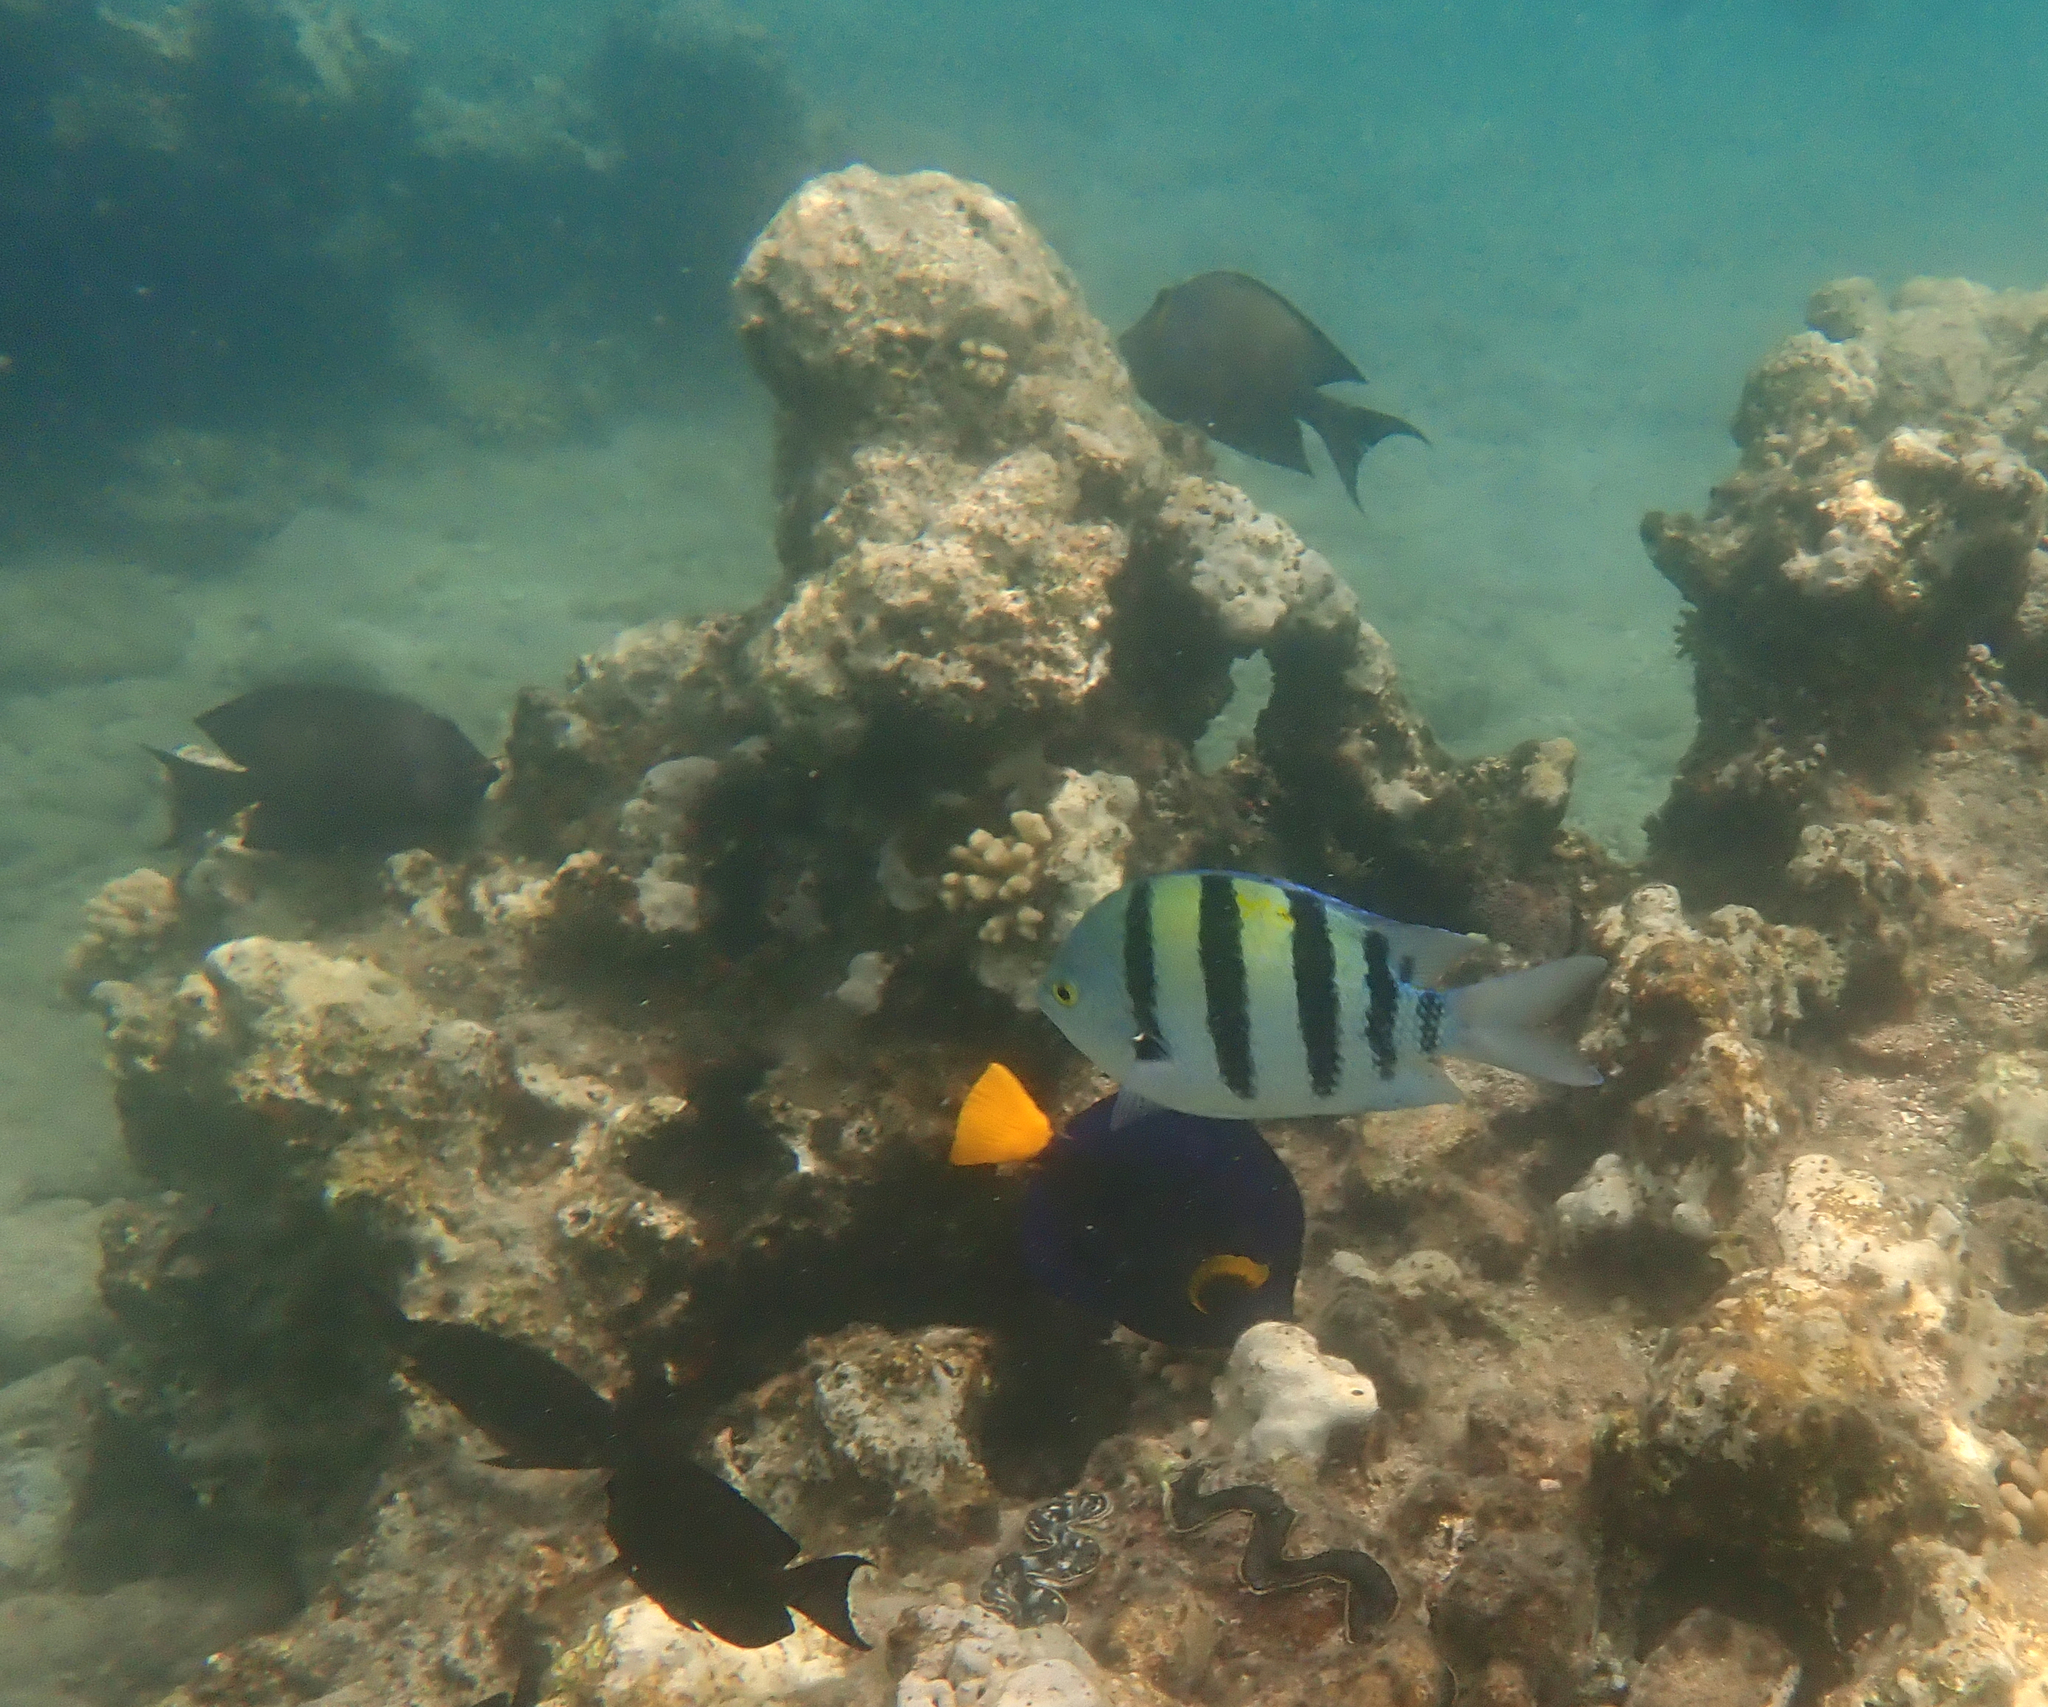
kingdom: Animalia
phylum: Chordata
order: Perciformes
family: Pomacentridae
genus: Abudefduf
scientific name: Abudefduf vaigiensis
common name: Indo-pacific sergeant
